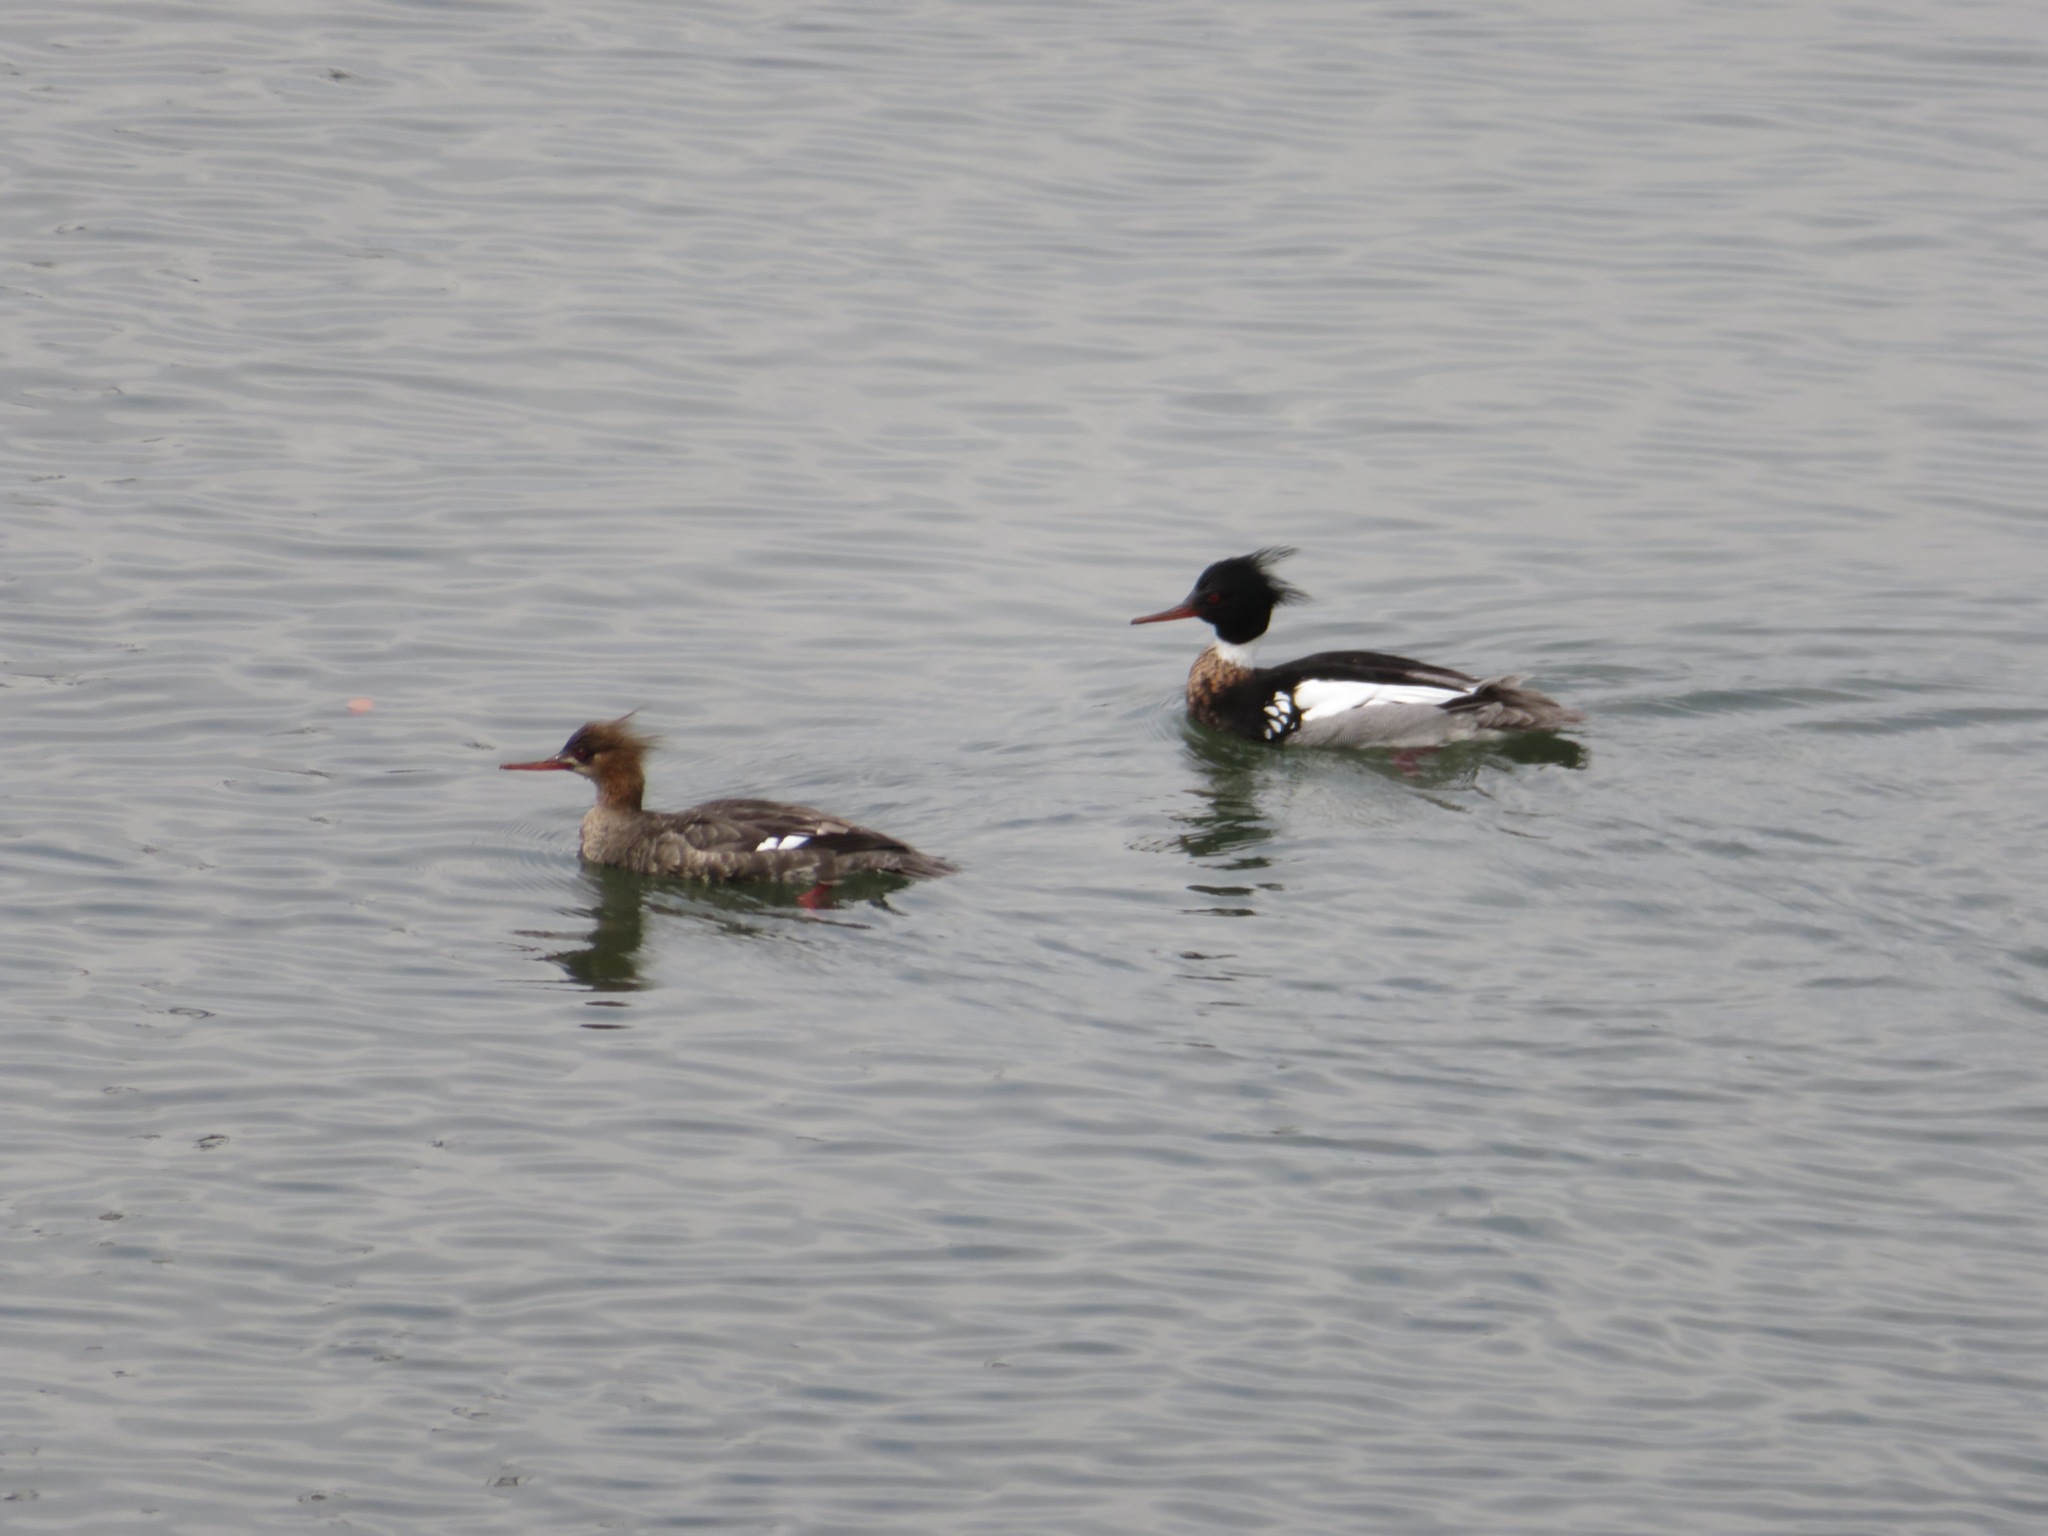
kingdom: Animalia
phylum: Chordata
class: Aves
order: Anseriformes
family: Anatidae
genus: Mergus
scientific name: Mergus serrator
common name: Red-breasted merganser
